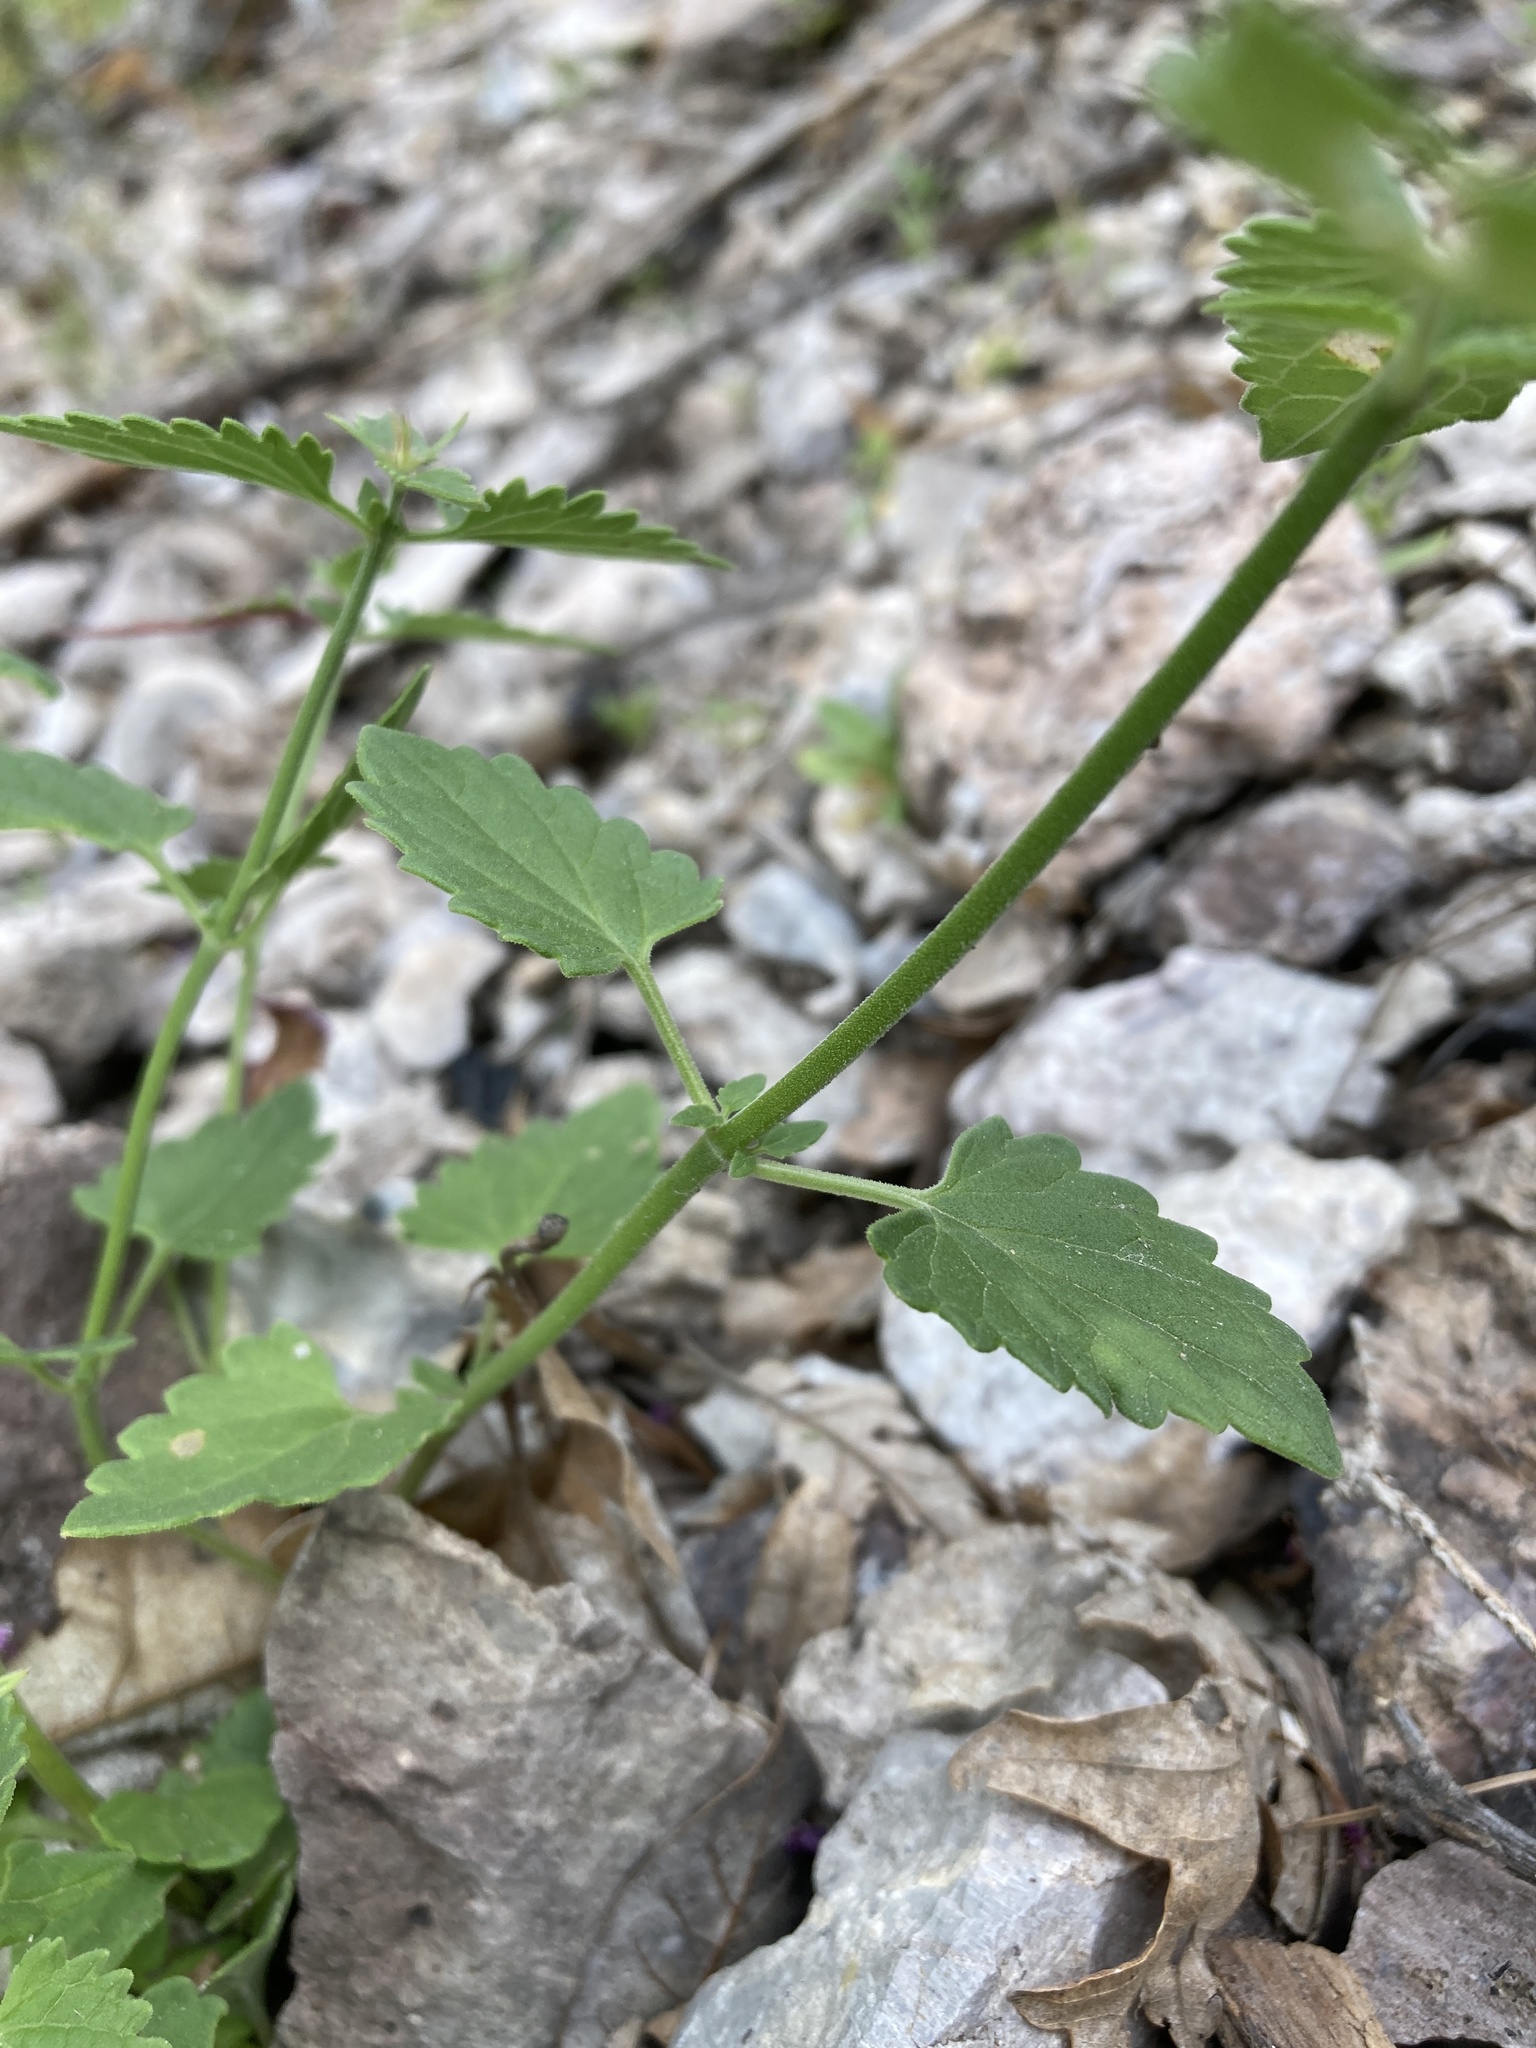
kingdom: Plantae
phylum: Tracheophyta
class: Magnoliopsida
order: Lamiales
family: Lamiaceae
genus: Agastache
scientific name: Agastache pallidiflora
